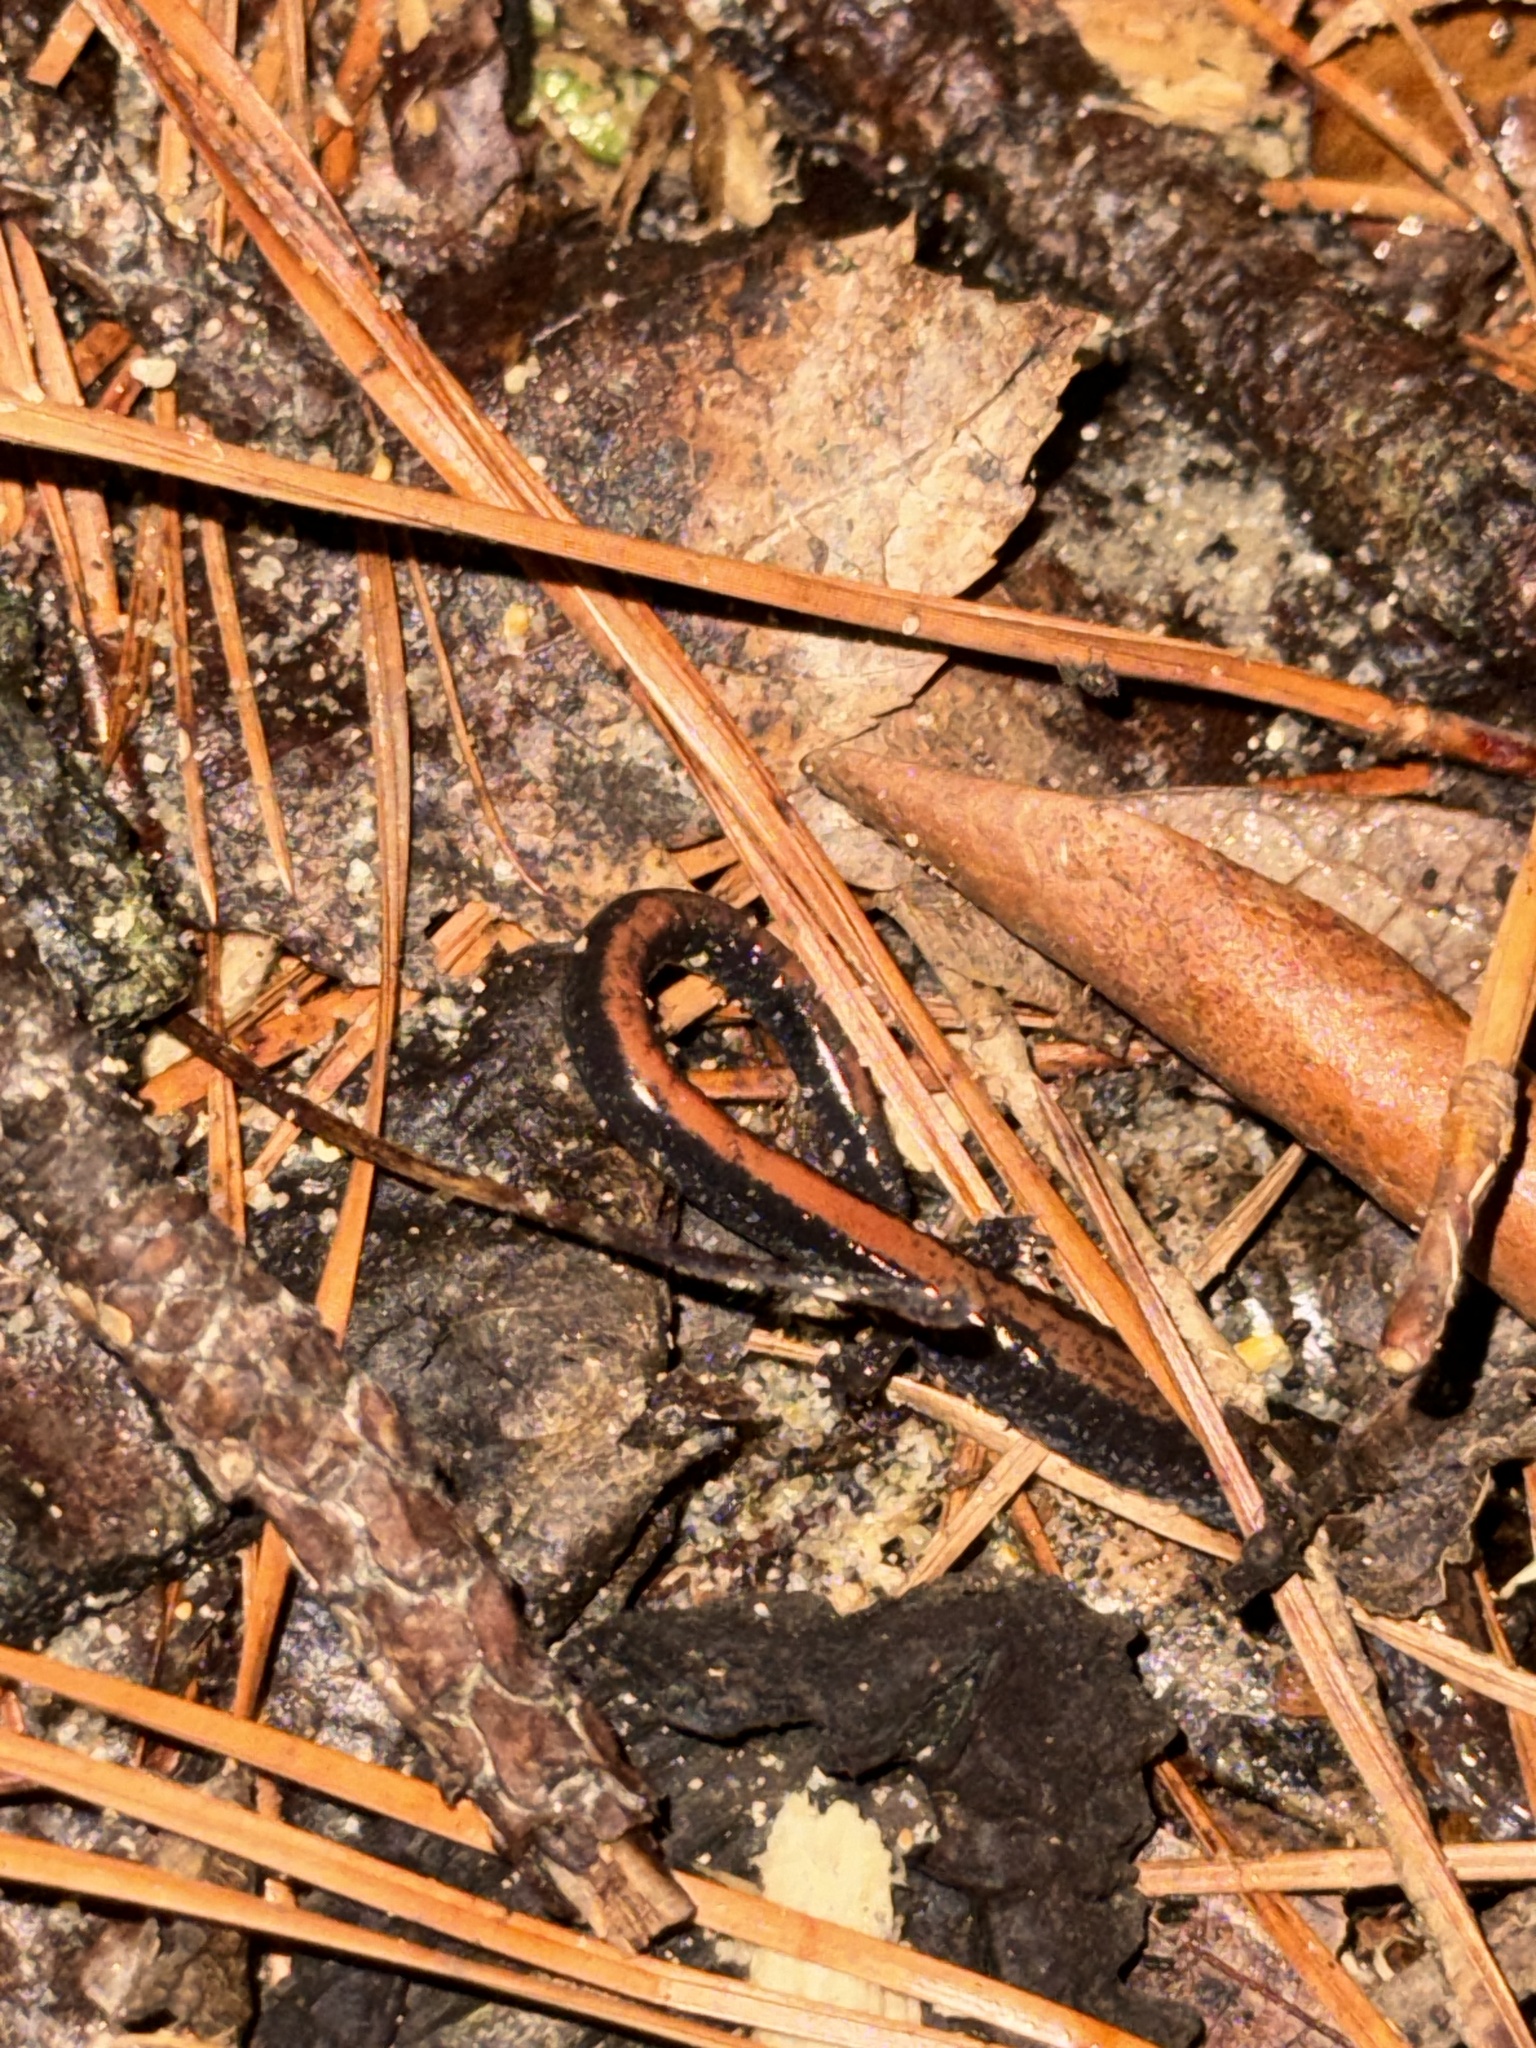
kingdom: Animalia
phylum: Chordata
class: Amphibia
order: Caudata
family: Plethodontidae
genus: Plethodon
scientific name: Plethodon cinereus
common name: Redback salamander
